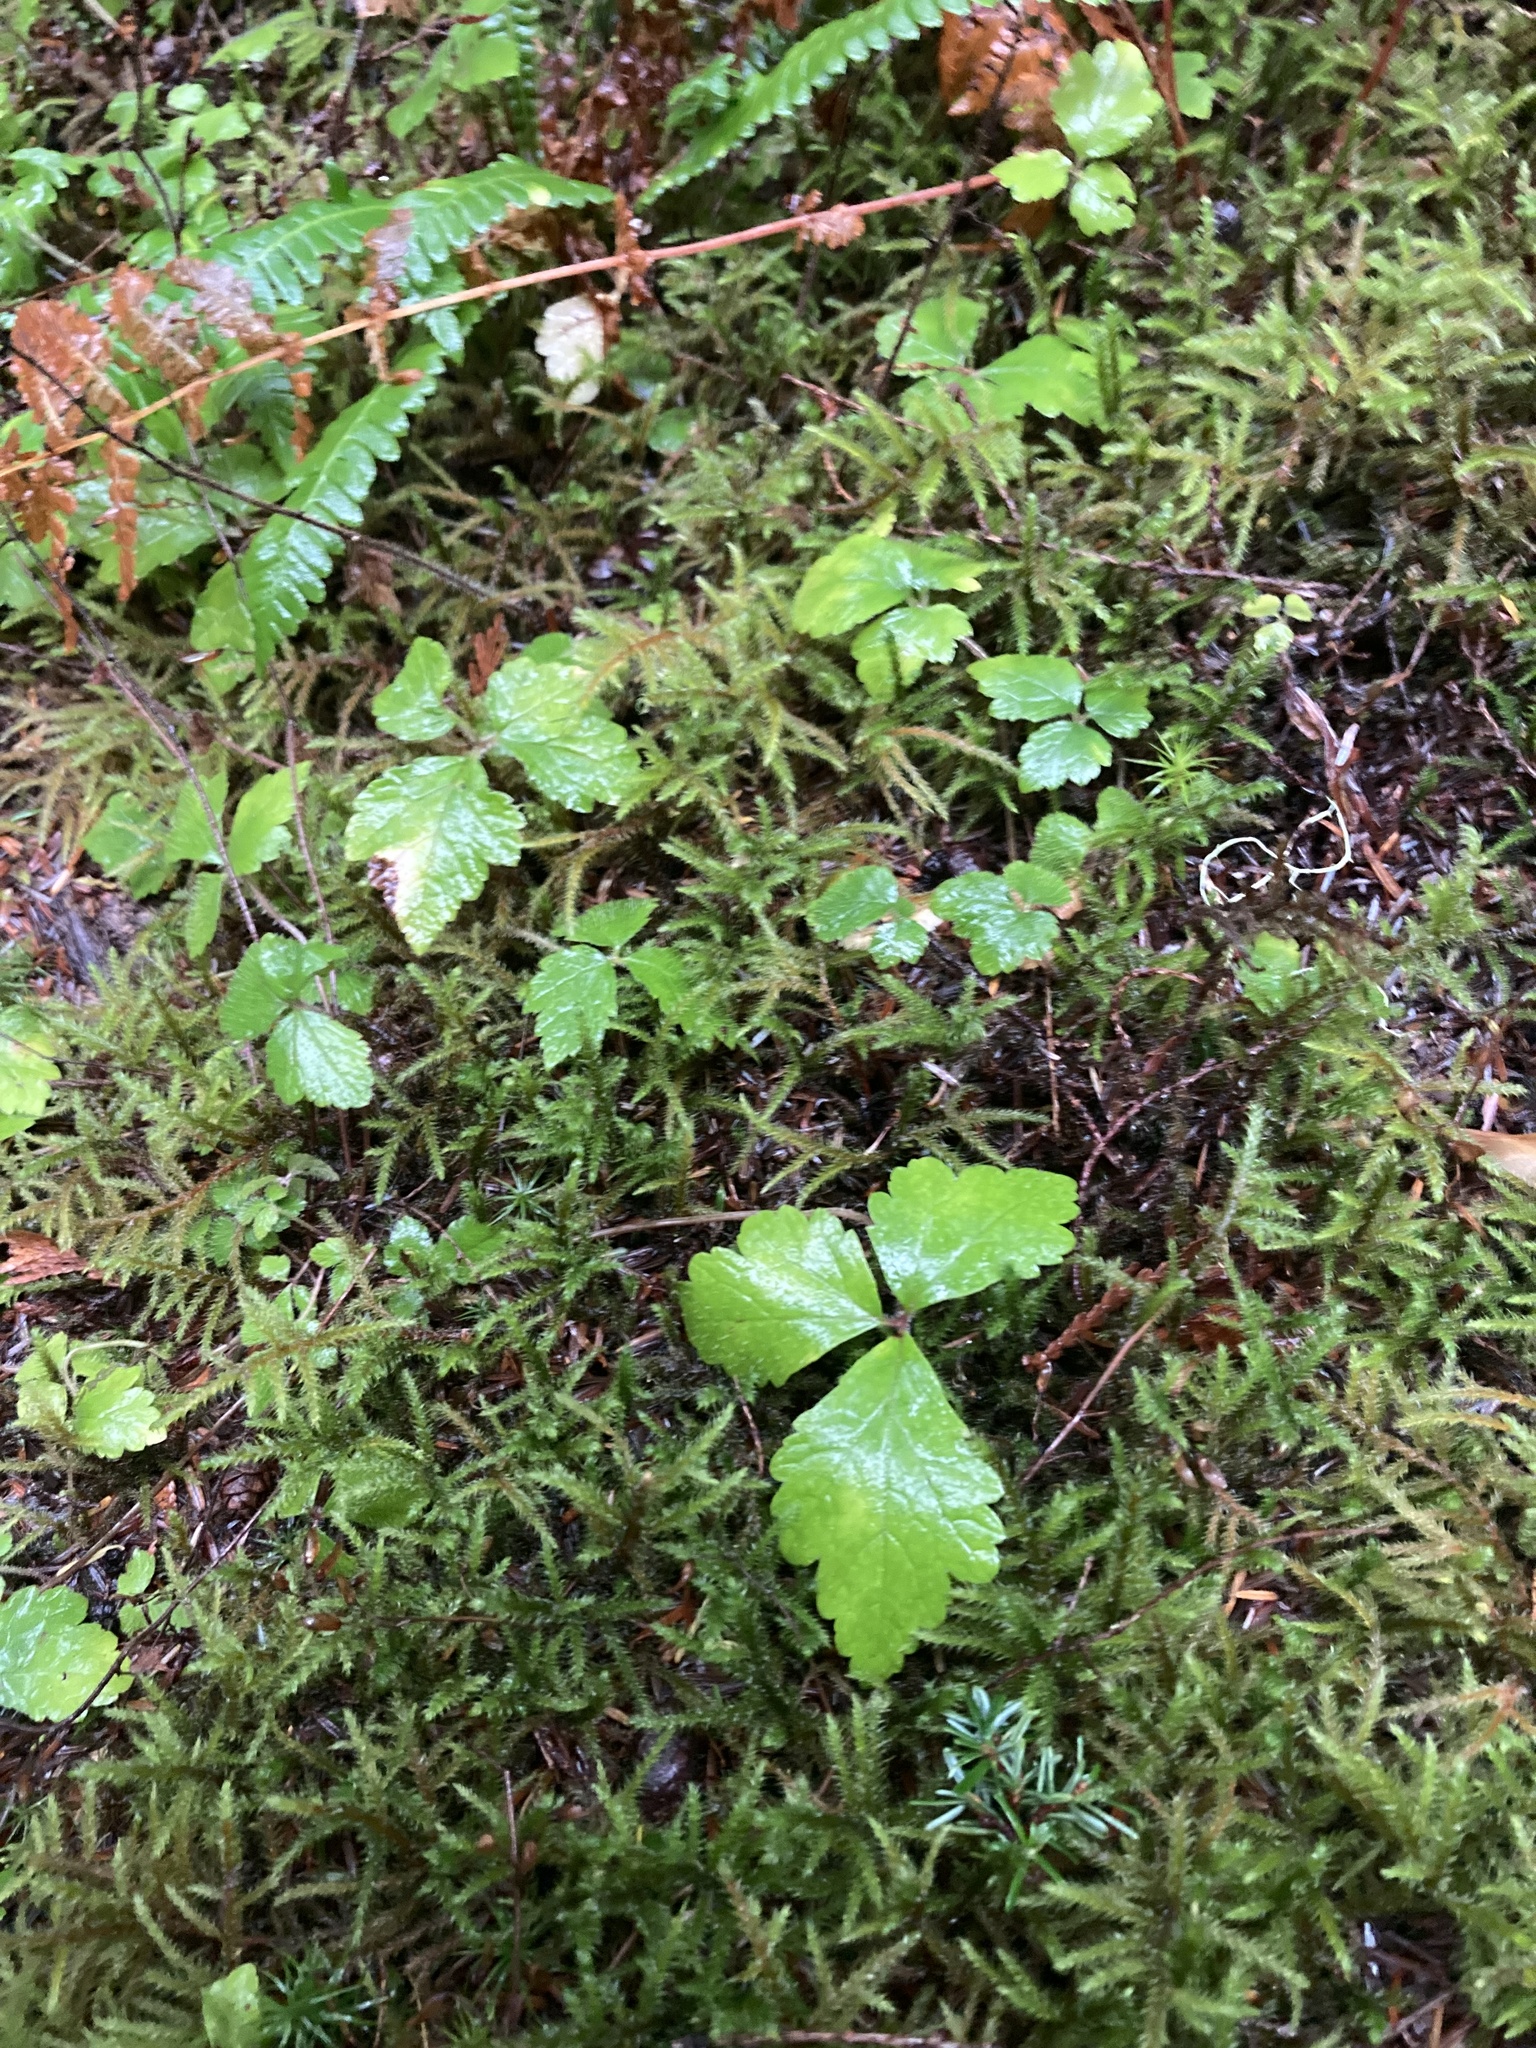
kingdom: Plantae
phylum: Tracheophyta
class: Magnoliopsida
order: Saxifragales
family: Saxifragaceae
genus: Tiarella
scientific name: Tiarella trifoliata
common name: Sugar-scoop
